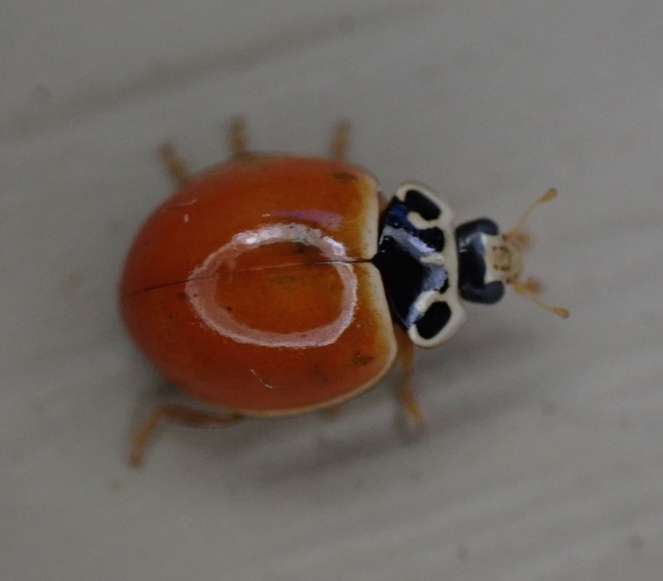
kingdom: Animalia
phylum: Arthropoda
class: Insecta
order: Coleoptera
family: Coccinellidae
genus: Cycloneda
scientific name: Cycloneda munda
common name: Polished lady beetle
